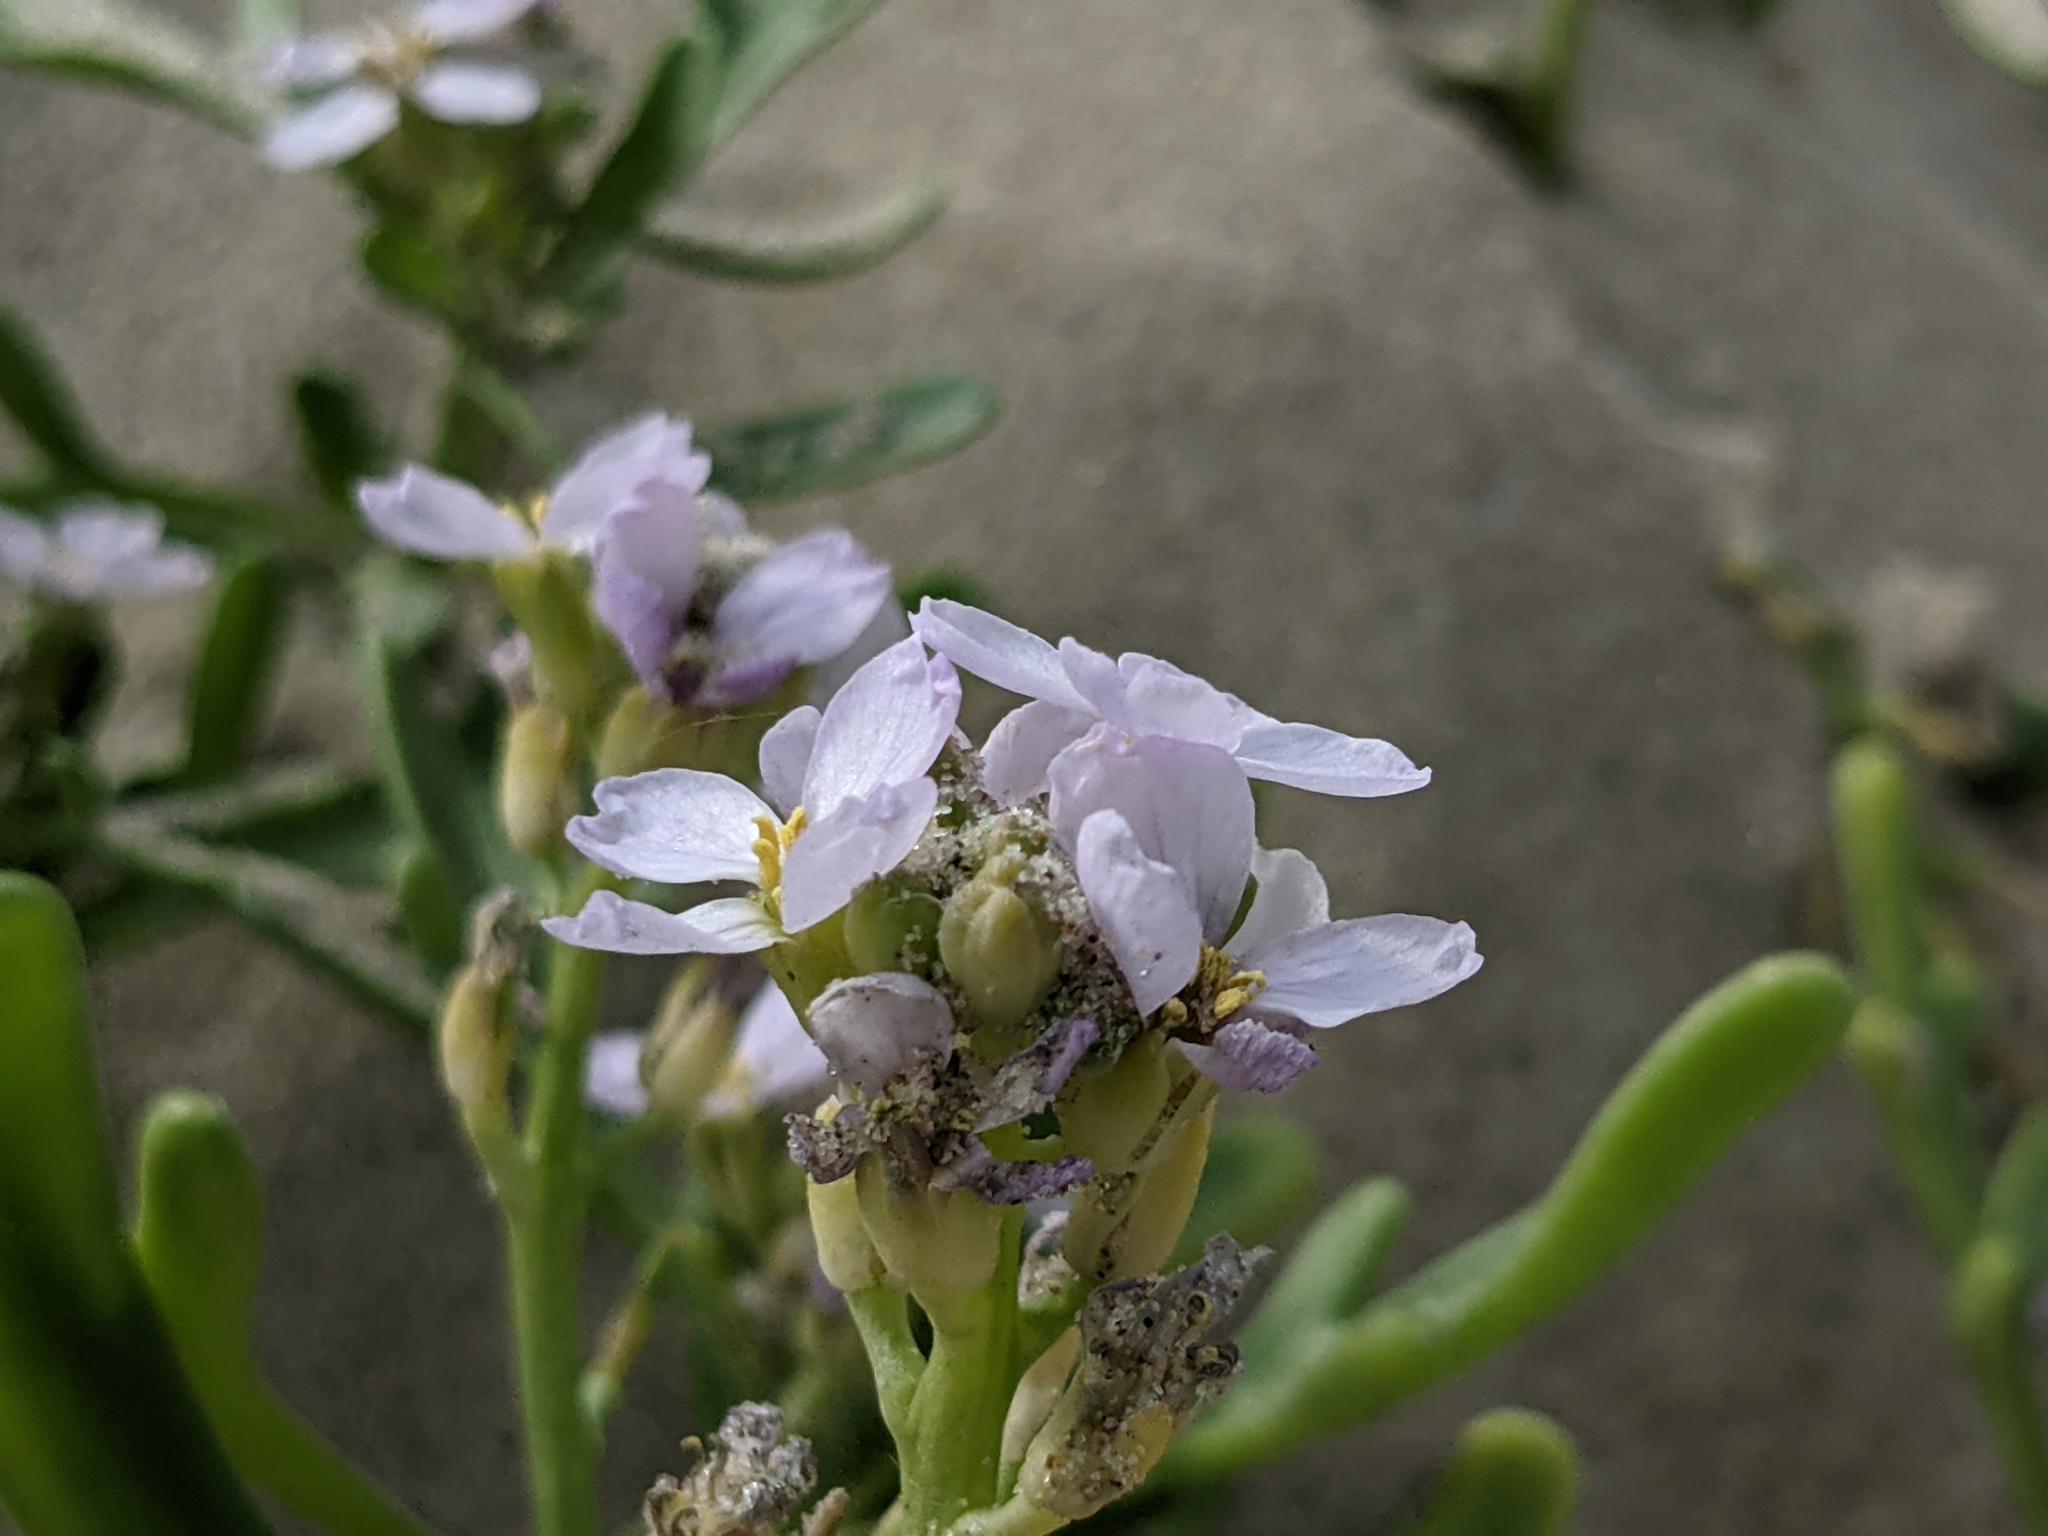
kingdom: Plantae
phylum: Tracheophyta
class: Magnoliopsida
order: Brassicales
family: Brassicaceae
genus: Cakile
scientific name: Cakile maritima
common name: Sea rocket
